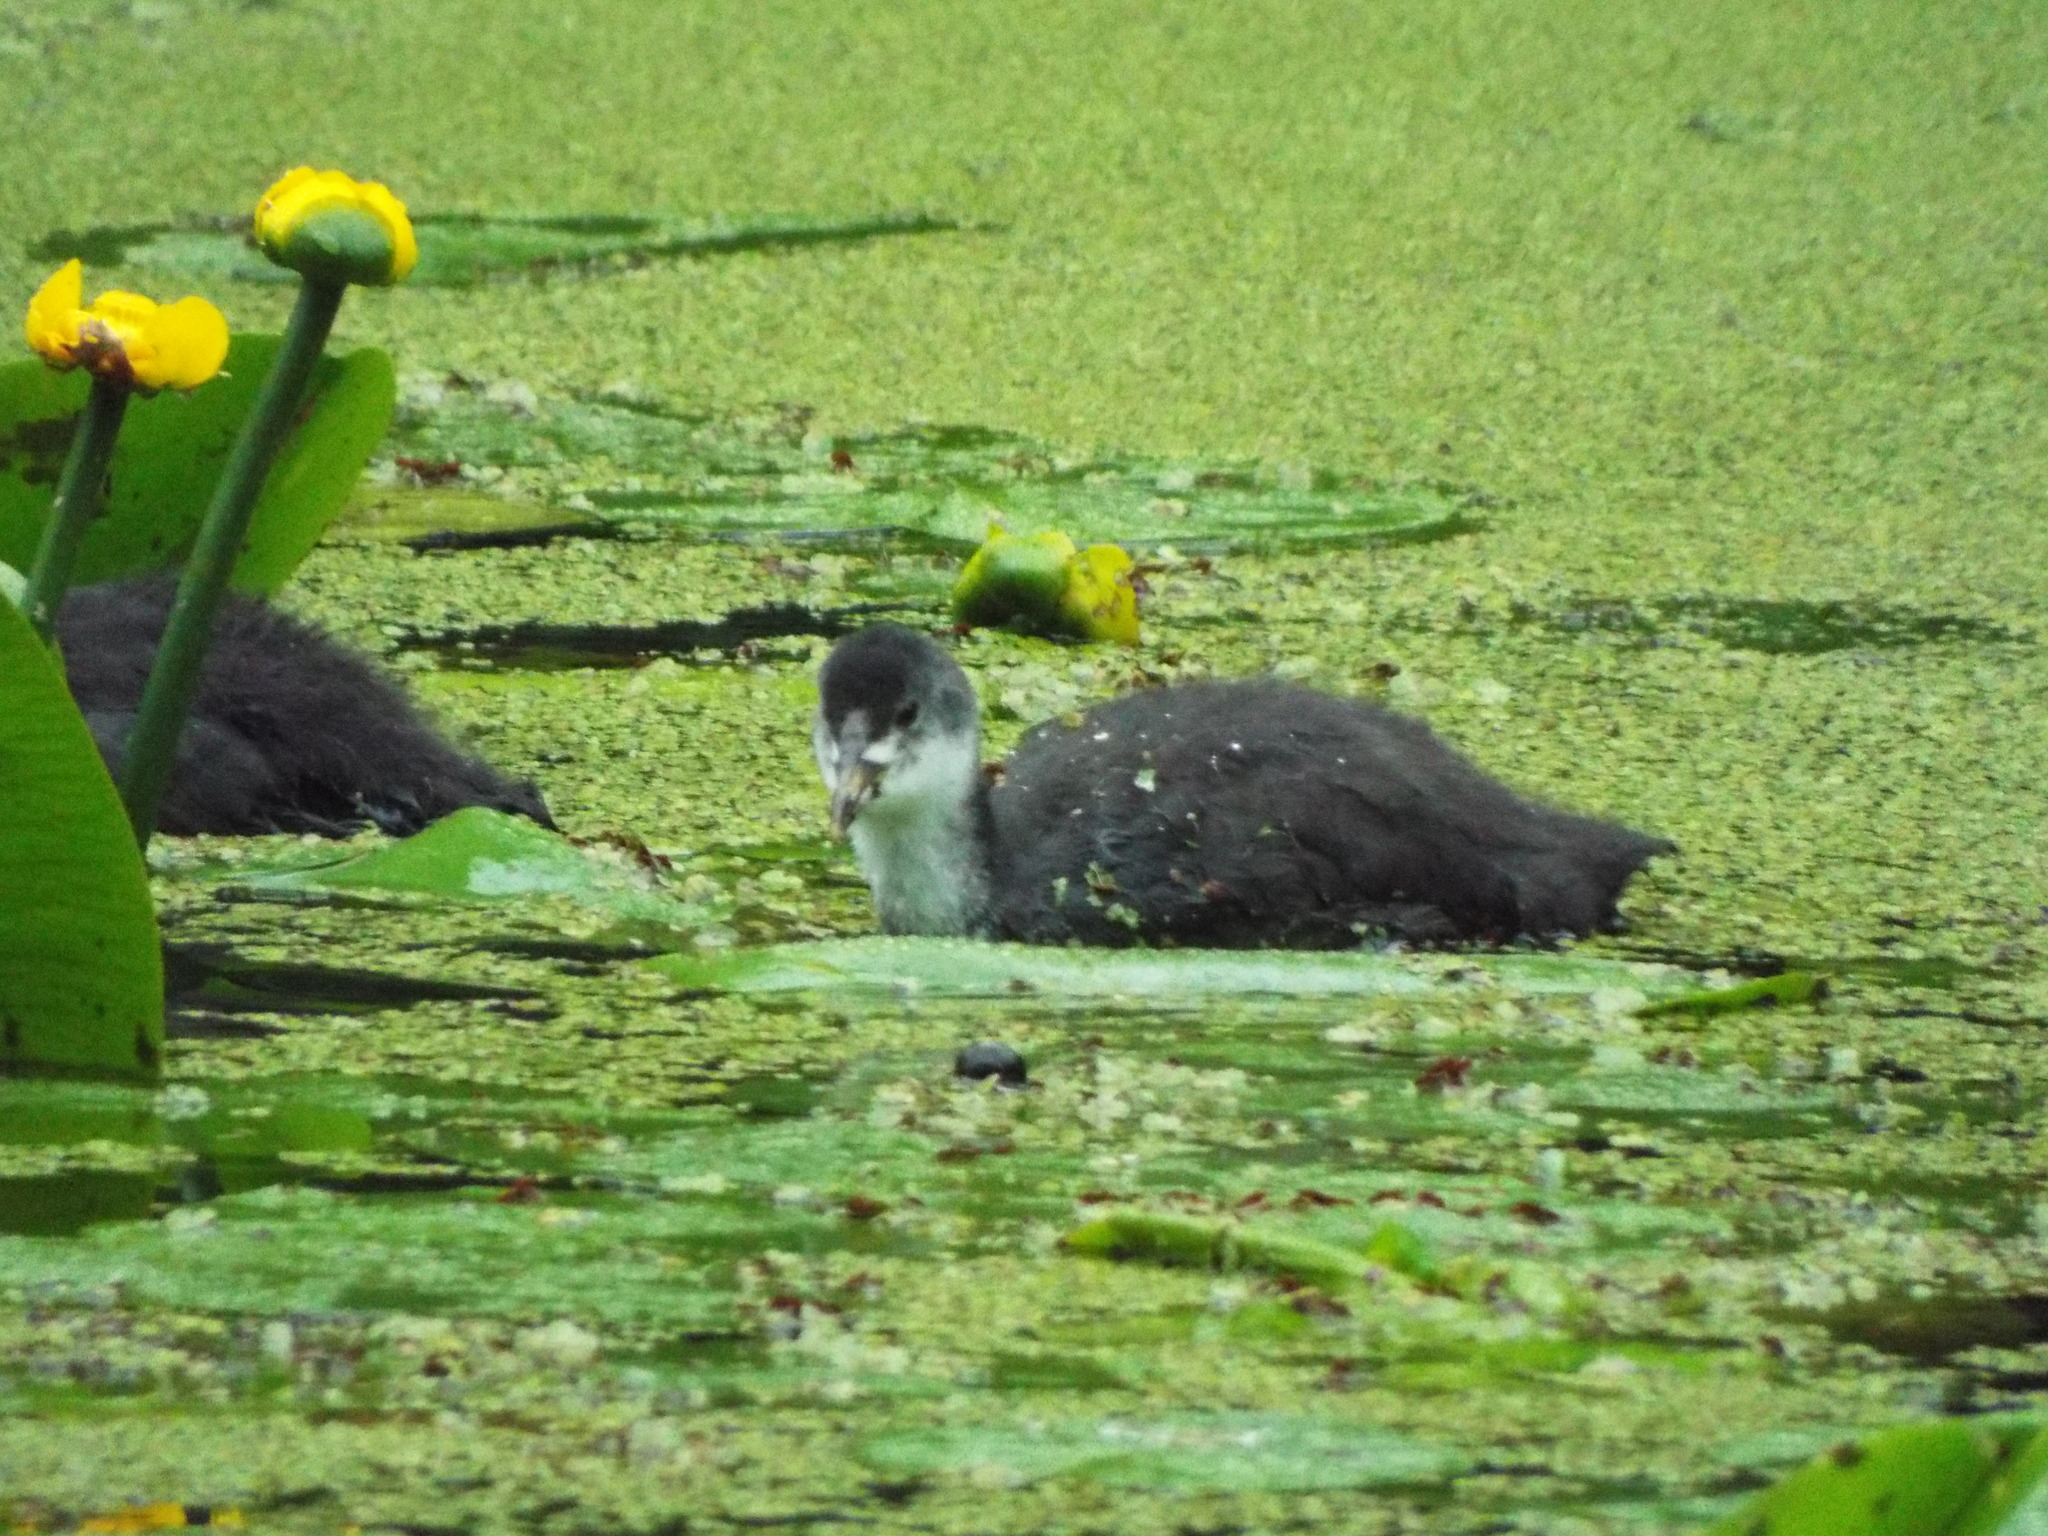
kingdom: Animalia
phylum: Chordata
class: Aves
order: Gruiformes
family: Rallidae
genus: Fulica
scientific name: Fulica atra
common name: Eurasian coot
